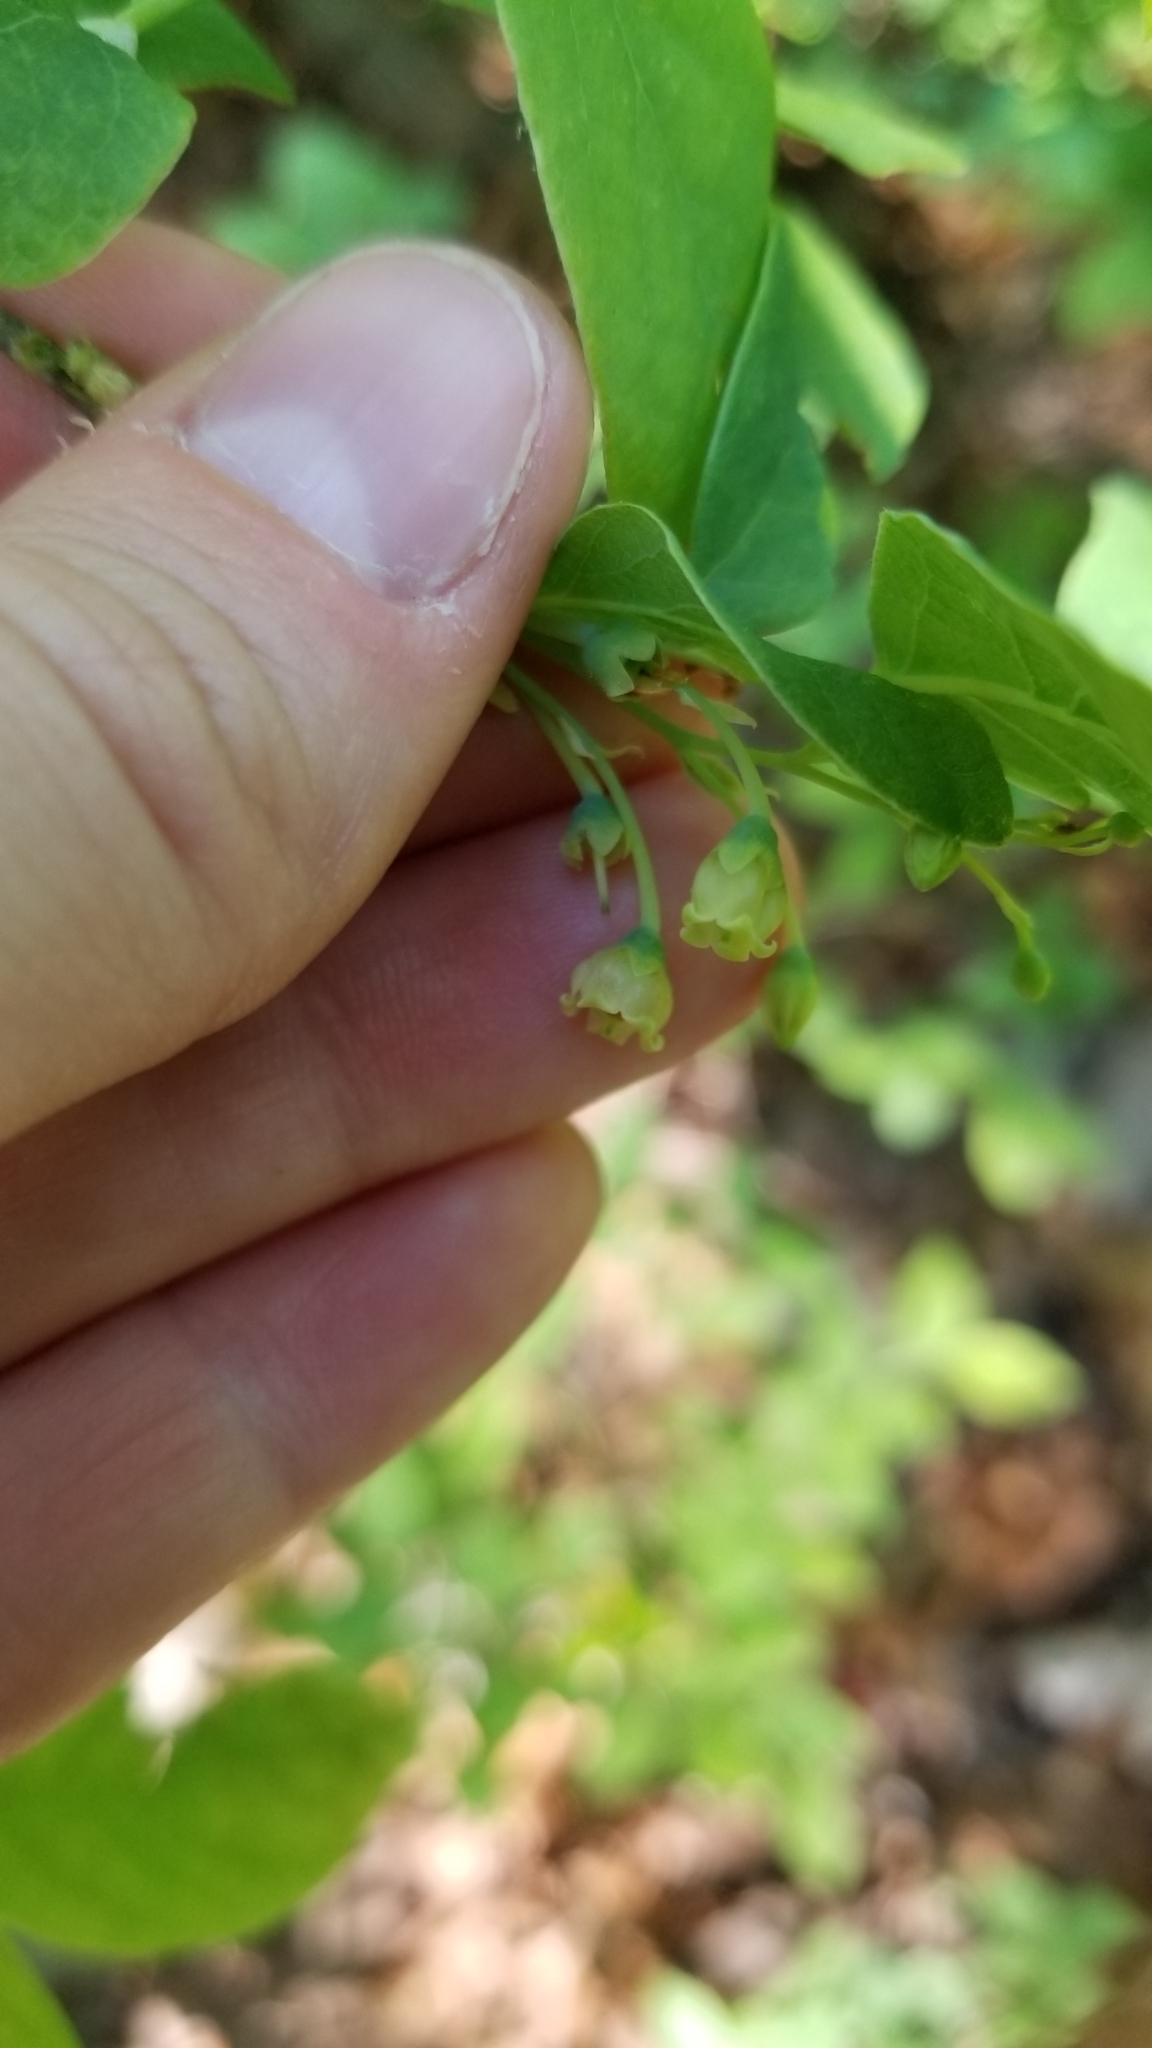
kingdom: Plantae
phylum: Tracheophyta
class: Magnoliopsida
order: Ericales
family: Ericaceae
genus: Gaylussacia
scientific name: Gaylussacia baccata
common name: Black huckleberry
